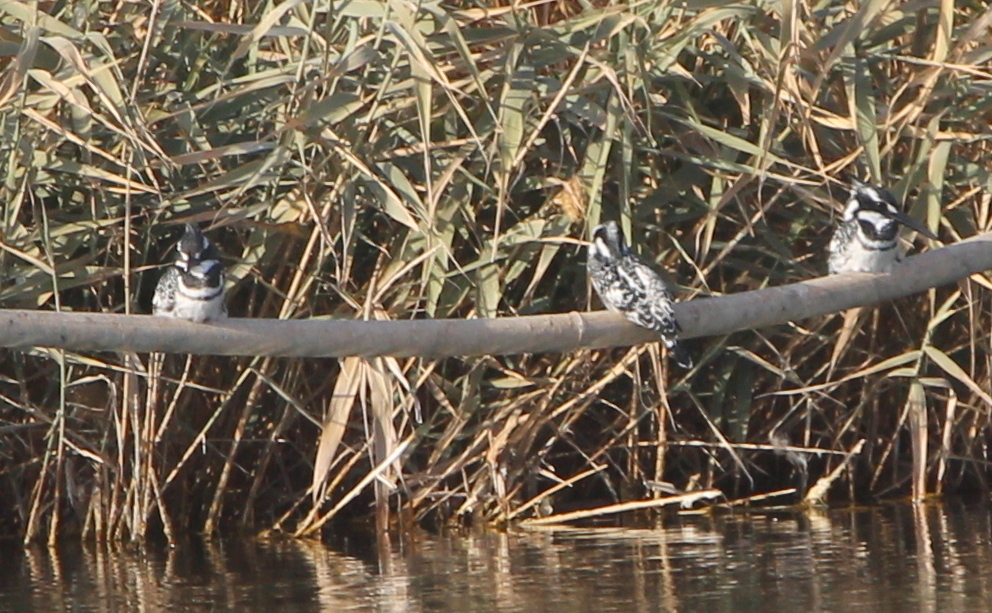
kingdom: Animalia
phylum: Chordata
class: Aves
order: Coraciiformes
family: Alcedinidae
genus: Ceryle
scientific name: Ceryle rudis
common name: Pied kingfisher
